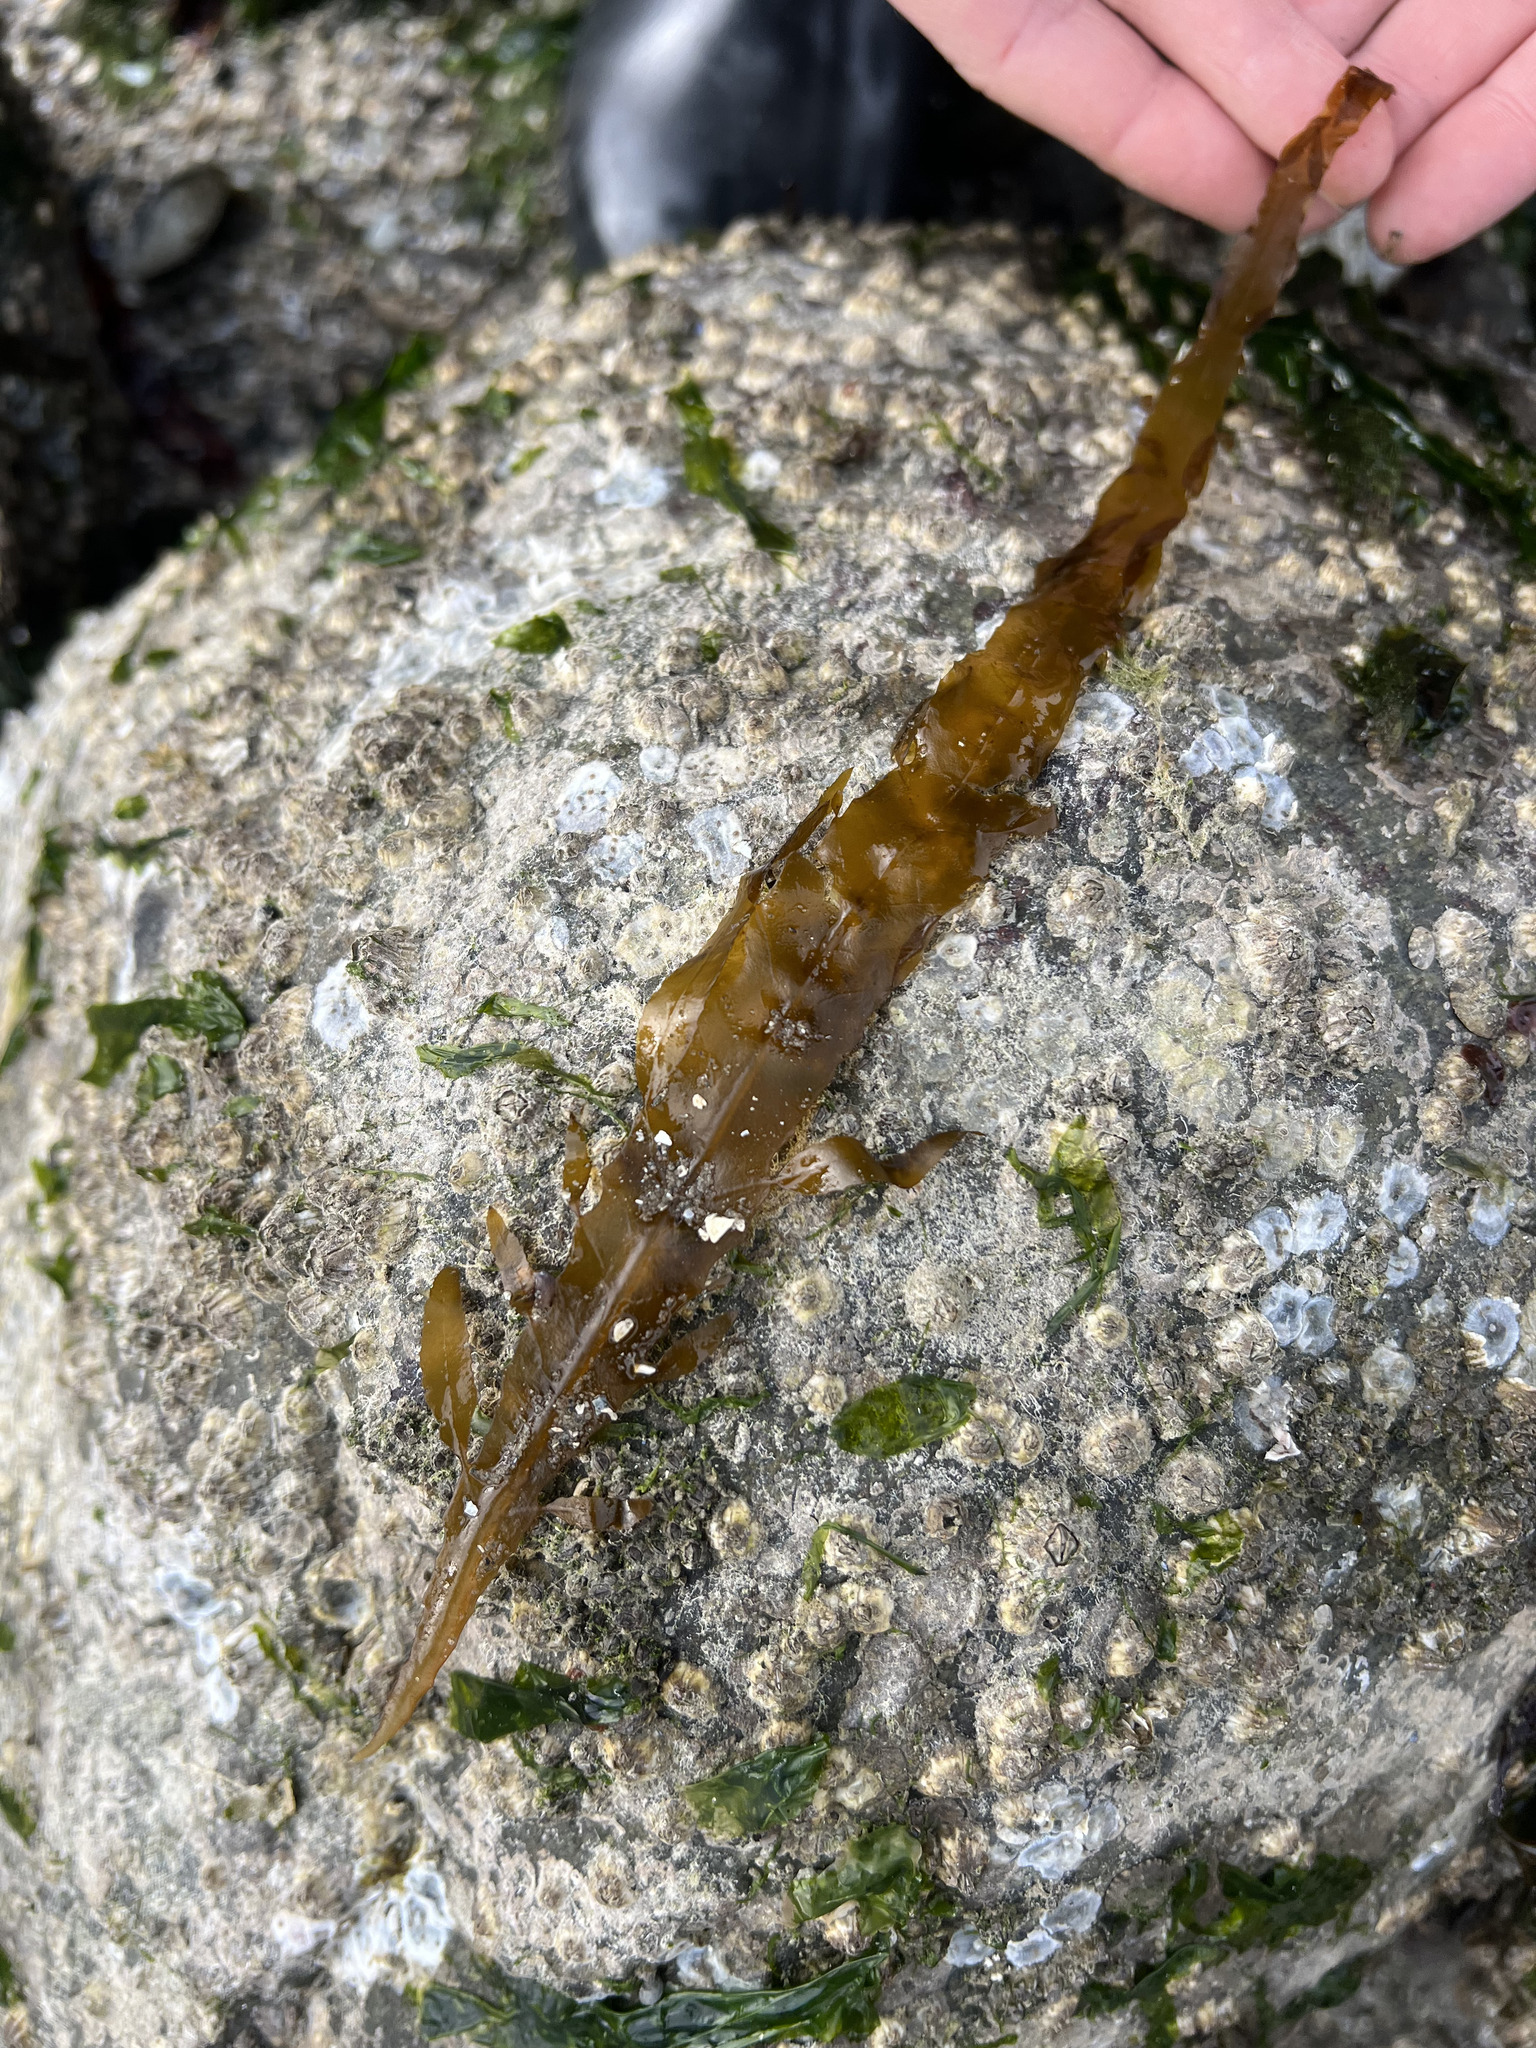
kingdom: Chromista
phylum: Ochrophyta
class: Phaeophyceae
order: Desmarestiales
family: Desmarestiaceae
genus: Desmarestia
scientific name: Desmarestia ligulata
